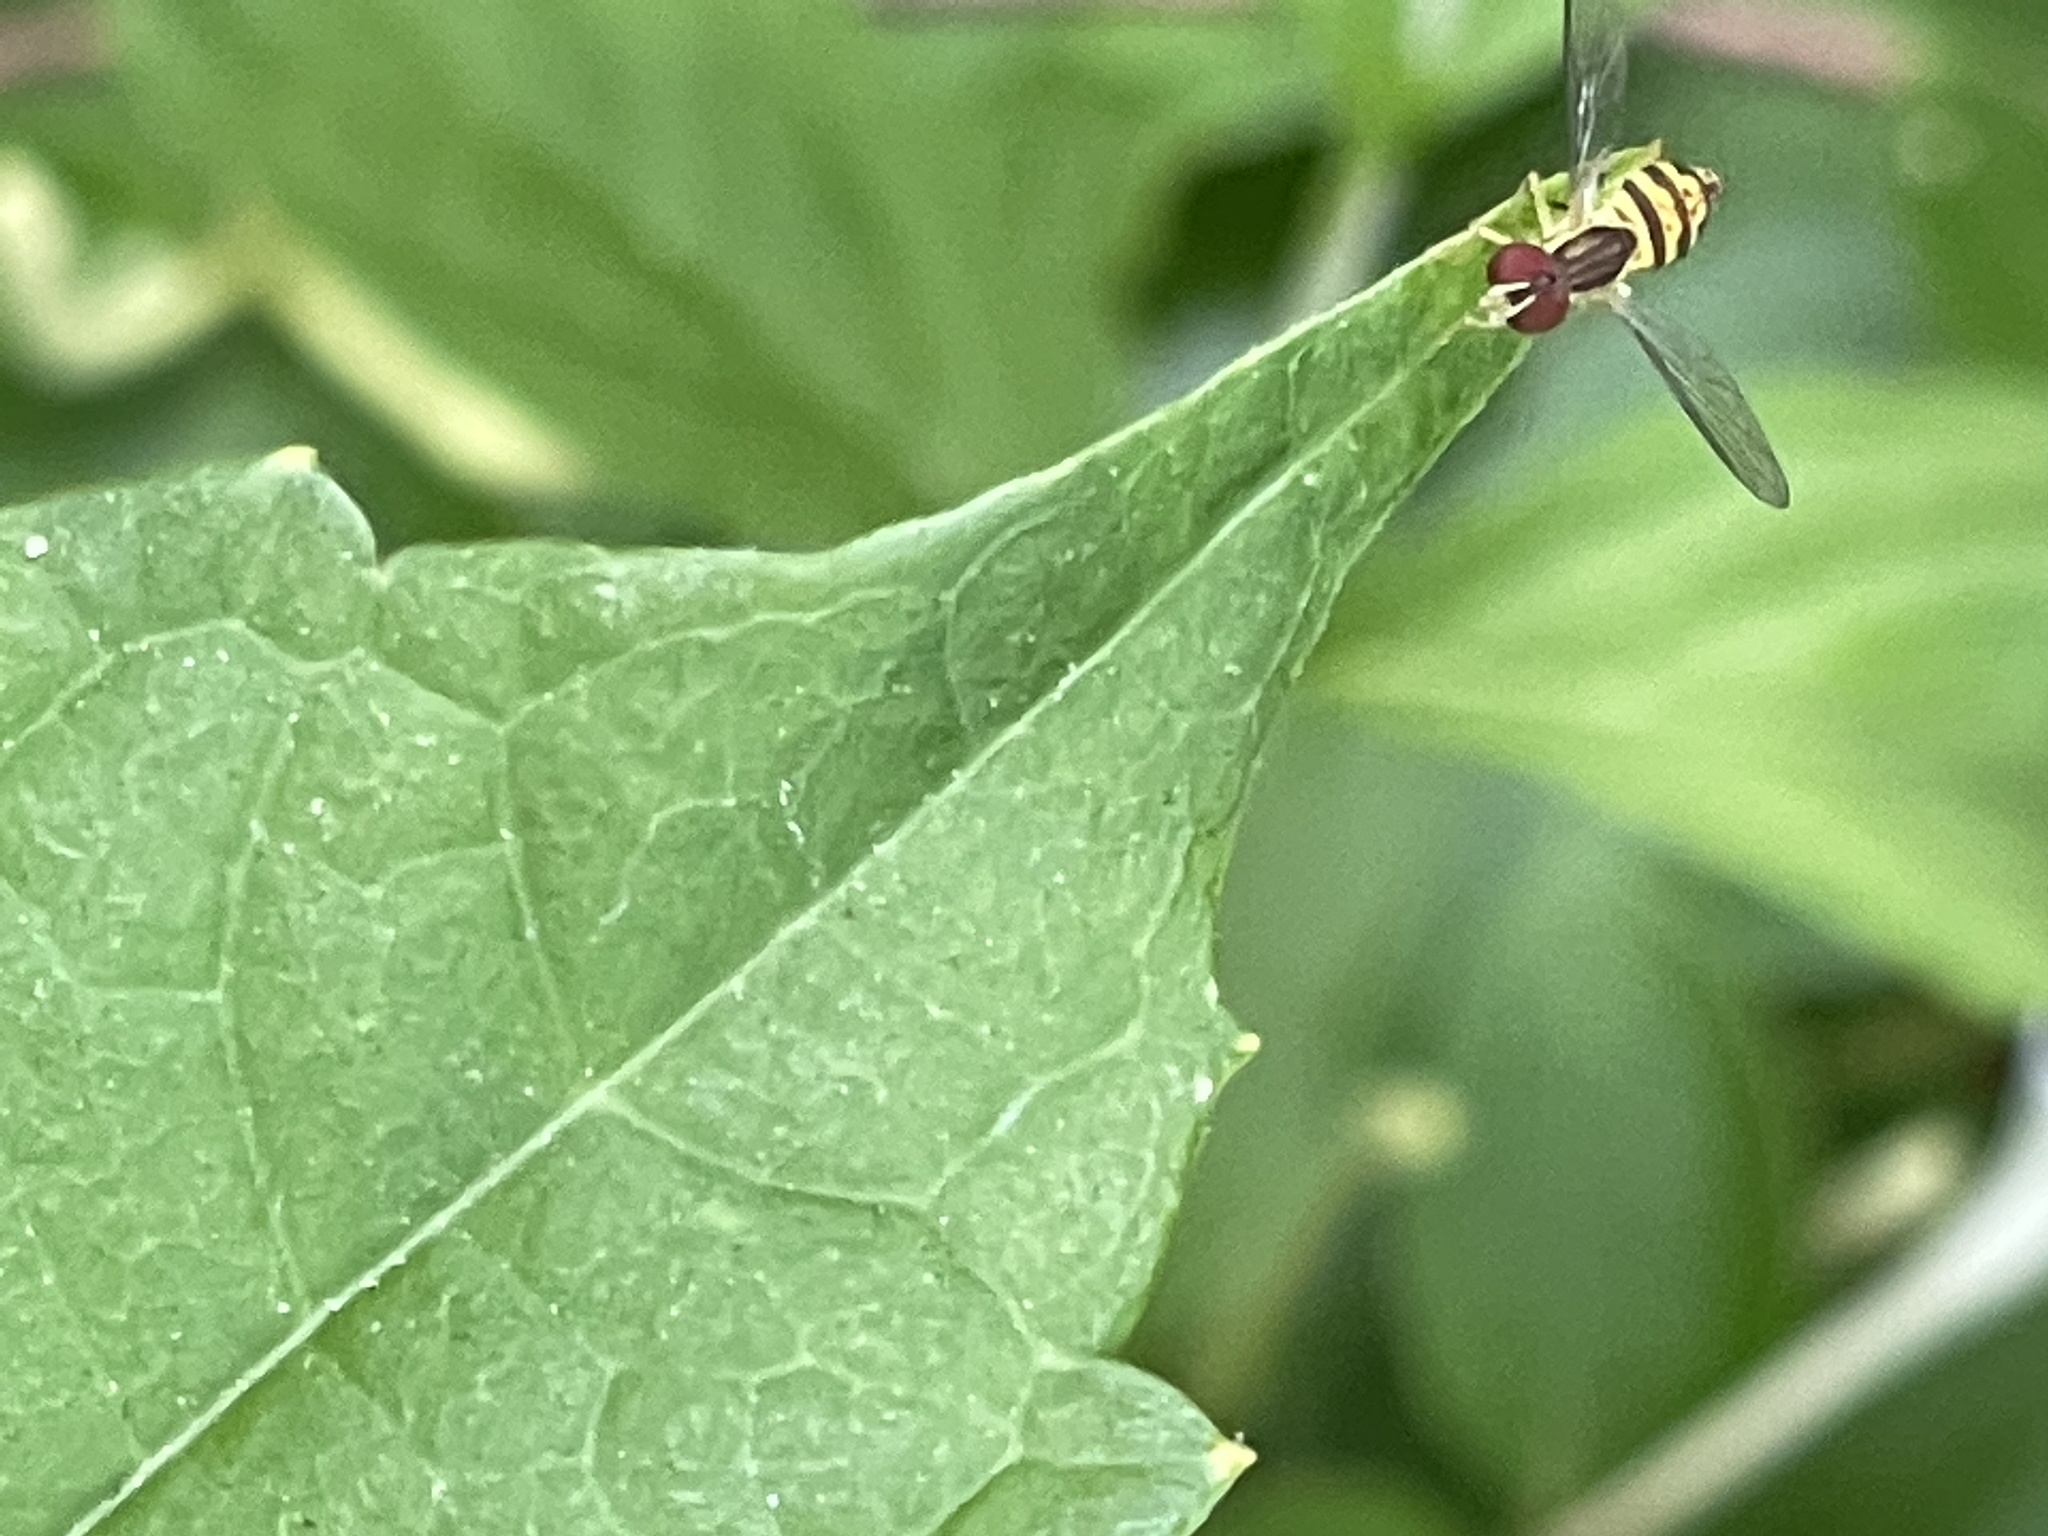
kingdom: Animalia
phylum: Arthropoda
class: Insecta
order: Diptera
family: Syrphidae
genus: Toxomerus
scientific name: Toxomerus geminatus
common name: Eastern calligrapher
